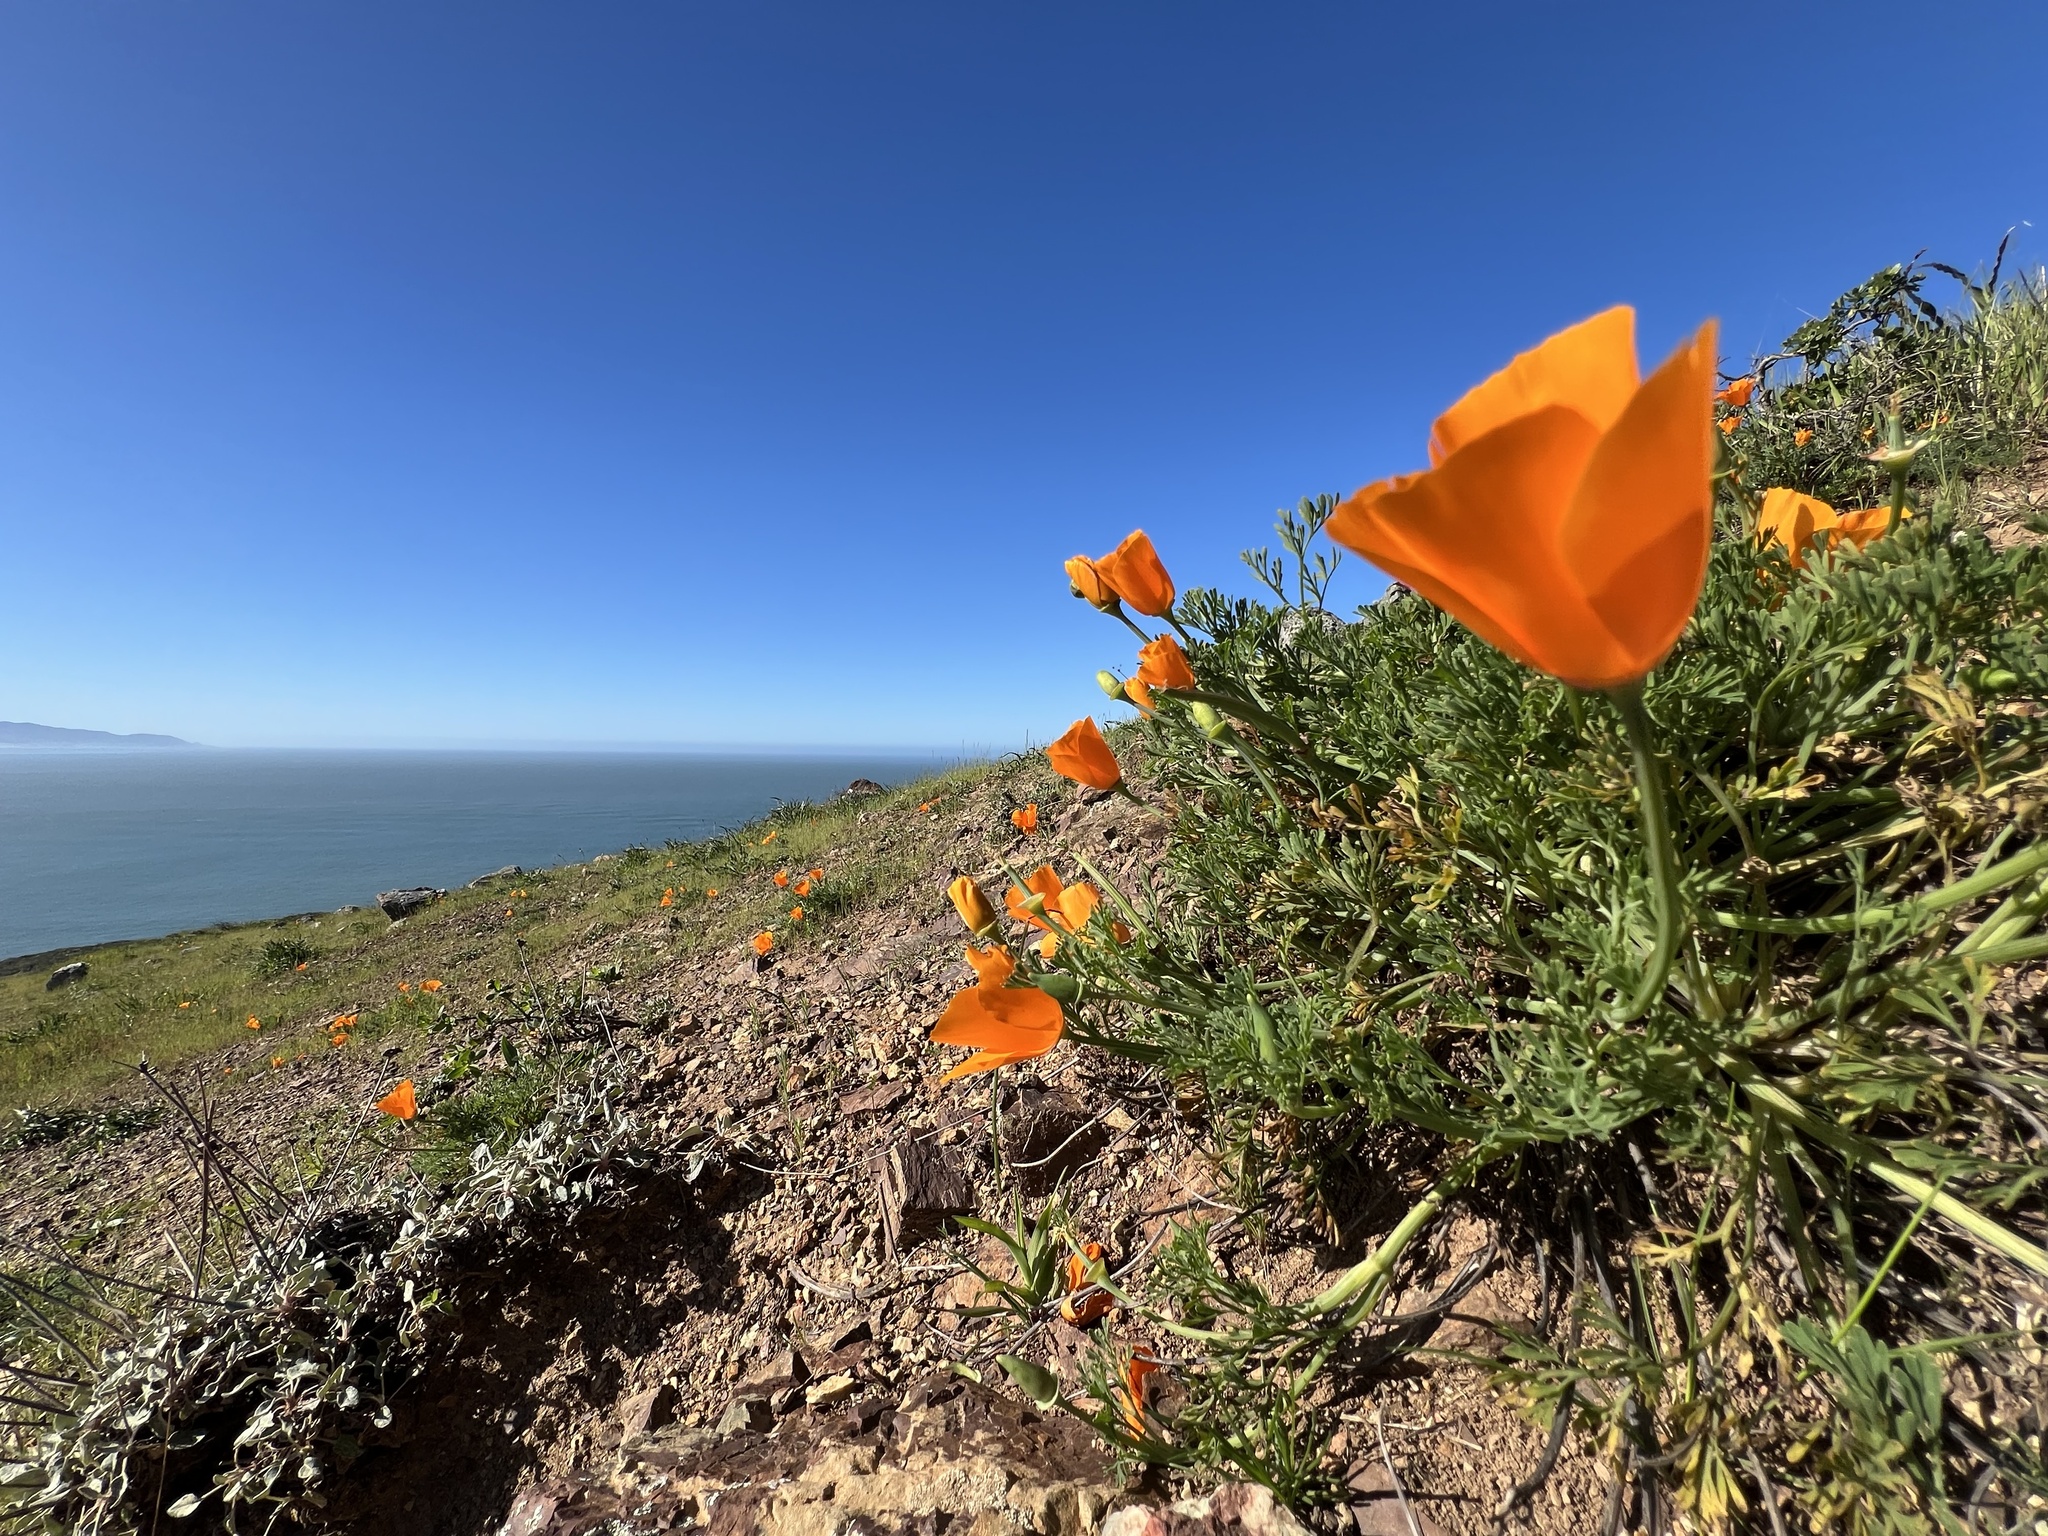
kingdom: Plantae
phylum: Tracheophyta
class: Magnoliopsida
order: Ranunculales
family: Papaveraceae
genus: Eschscholzia
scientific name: Eschscholzia californica
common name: California poppy
